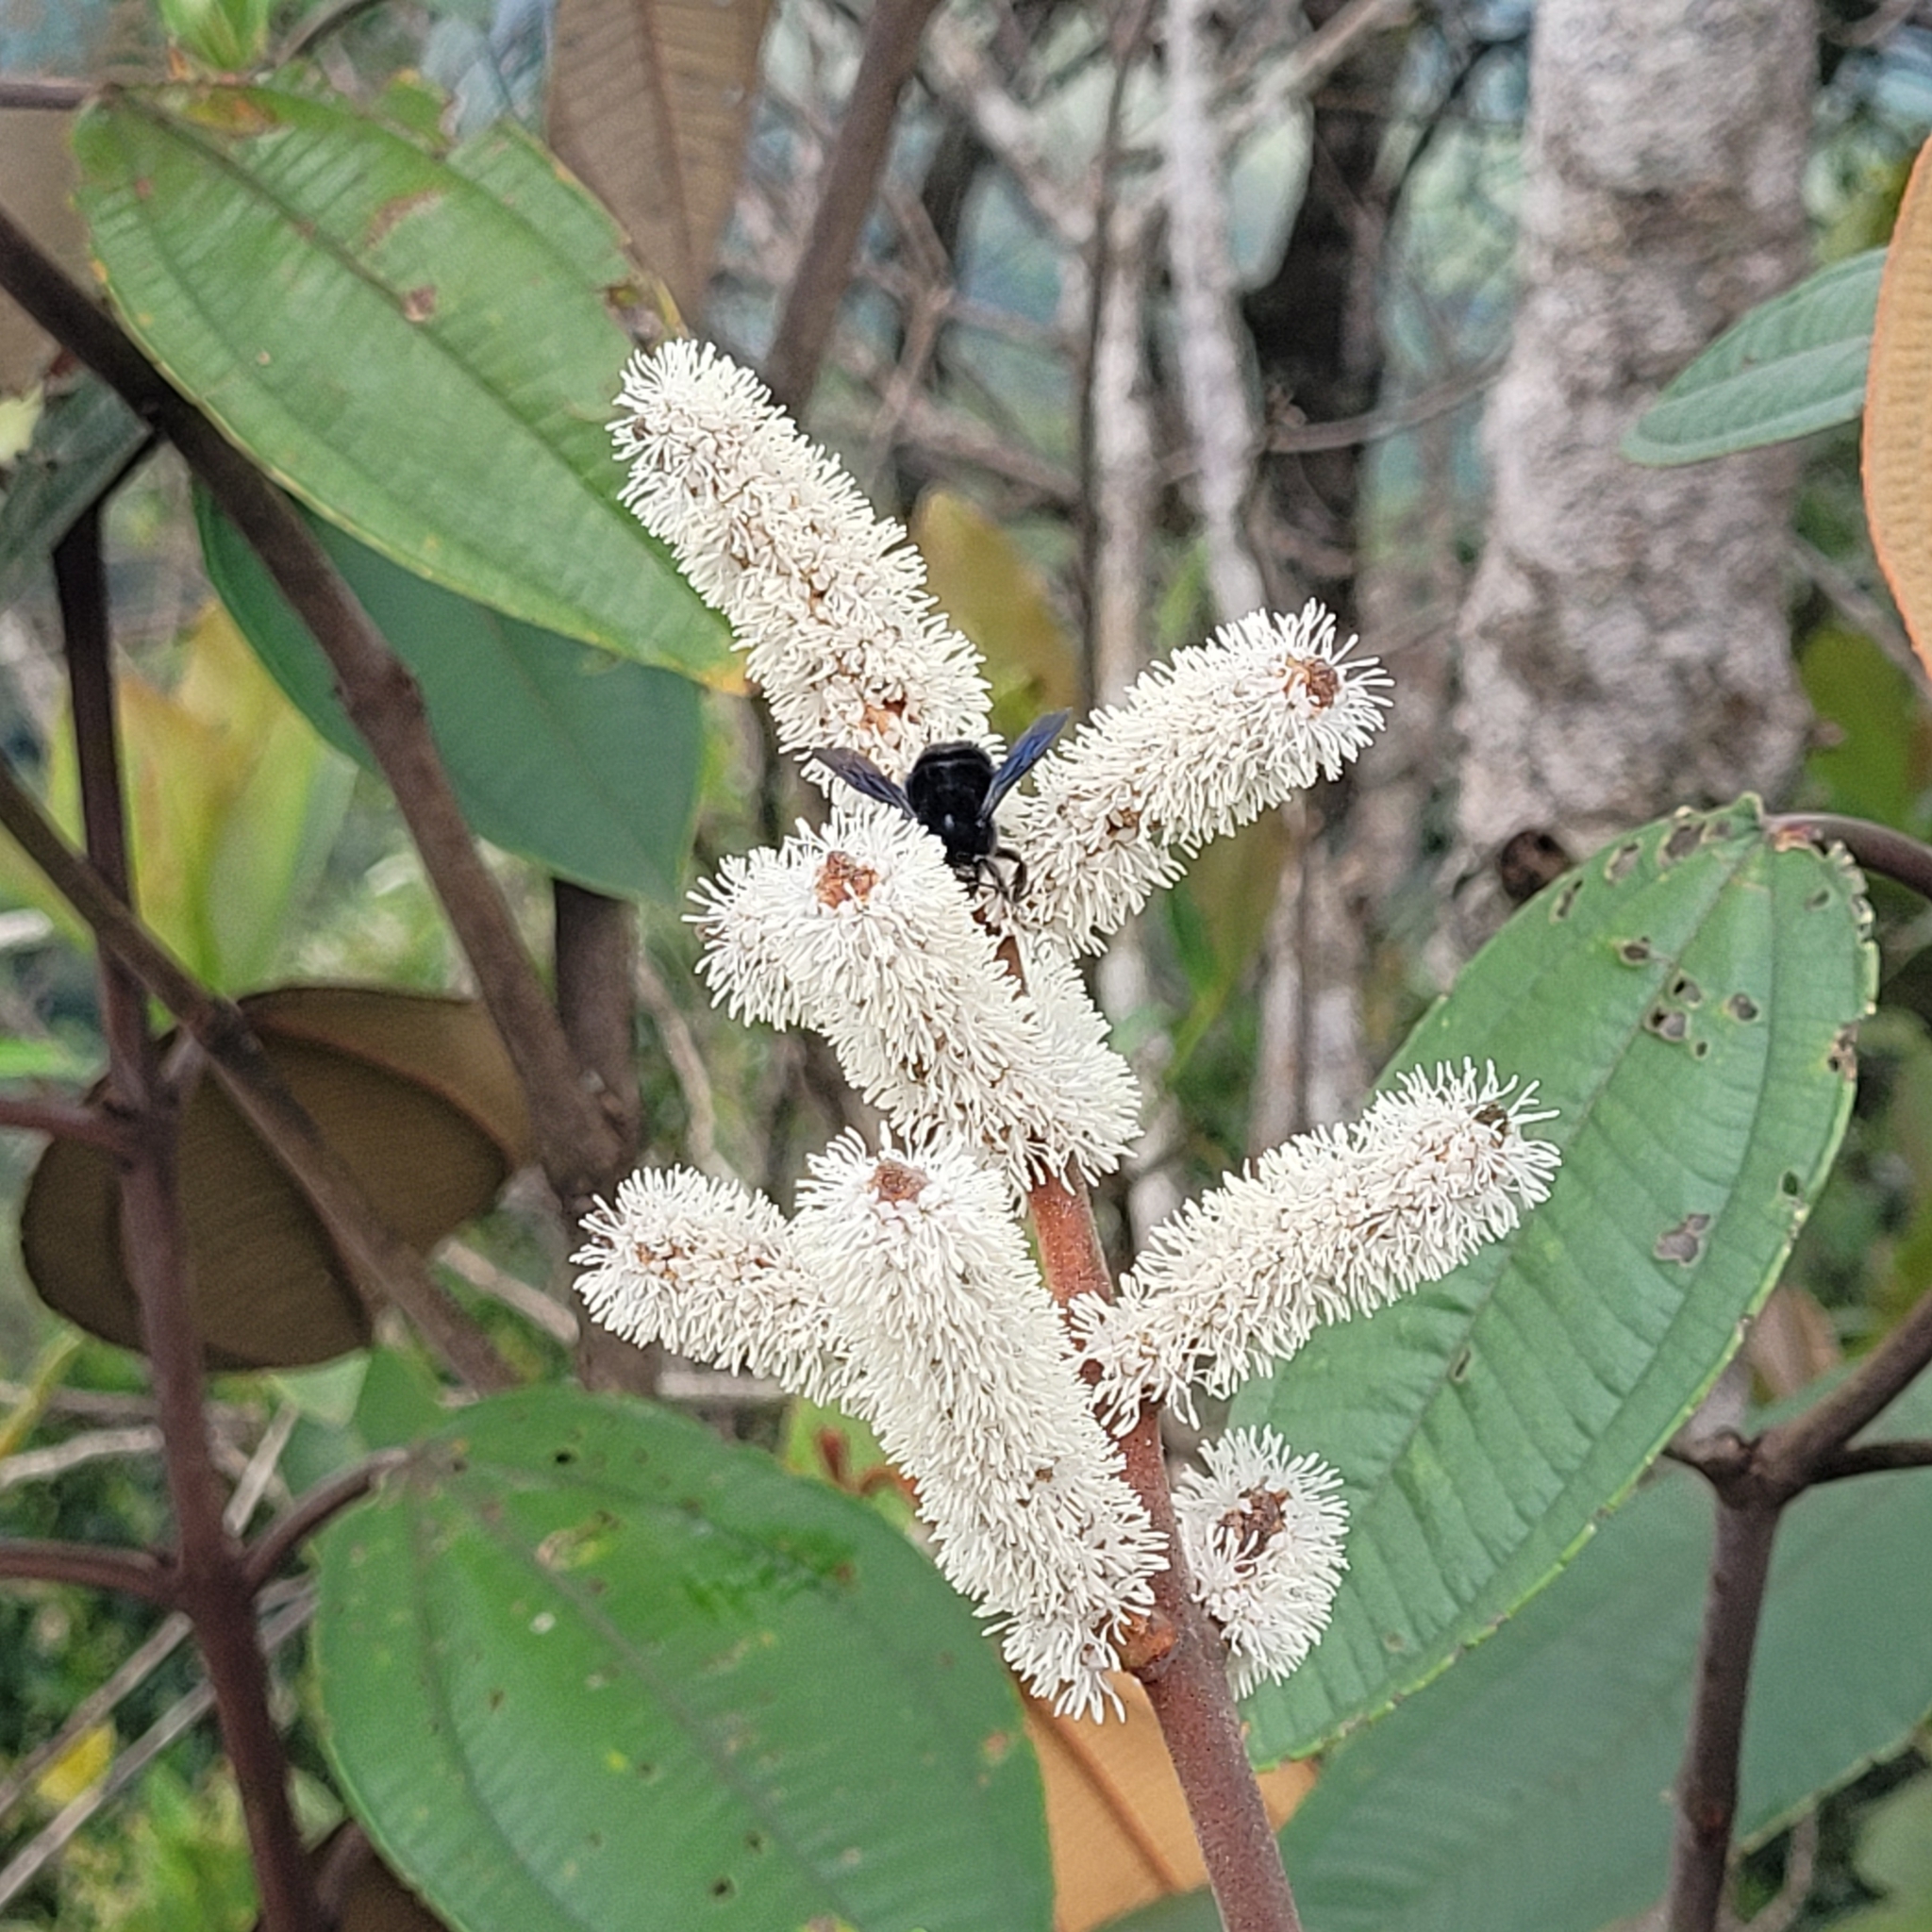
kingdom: Plantae
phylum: Tracheophyta
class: Magnoliopsida
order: Myrtales
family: Melastomataceae
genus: Miconia
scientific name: Miconia corallina
